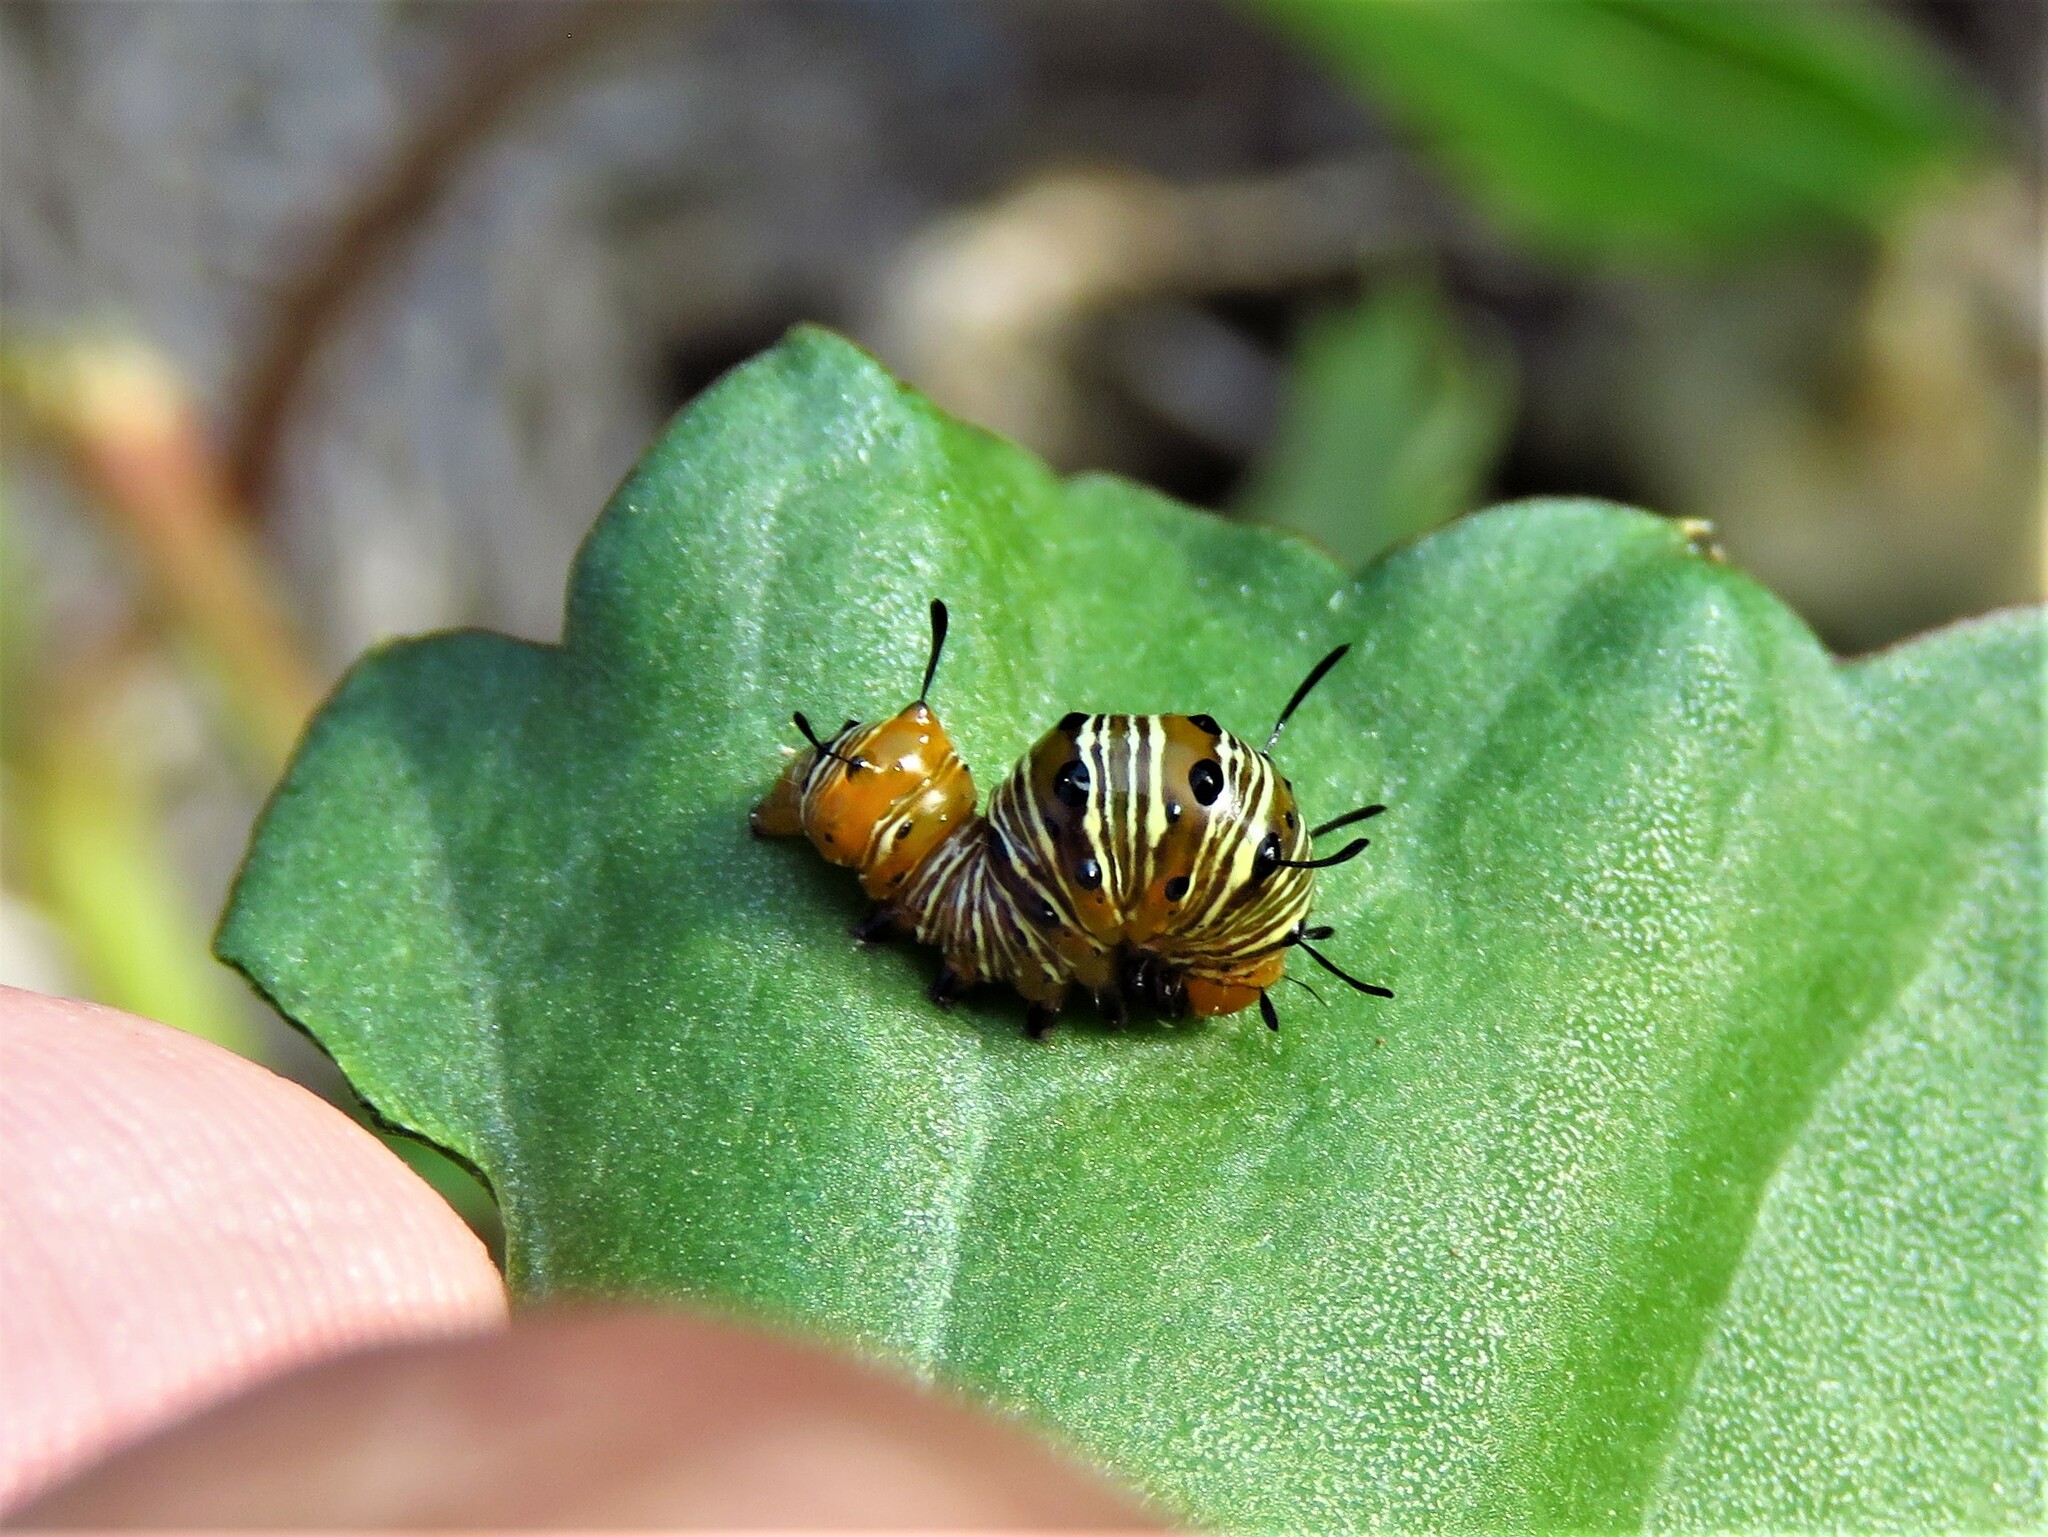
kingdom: Animalia
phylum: Arthropoda
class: Insecta
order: Lepidoptera
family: Noctuidae
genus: Xerociris
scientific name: Xerociris wilsonii
